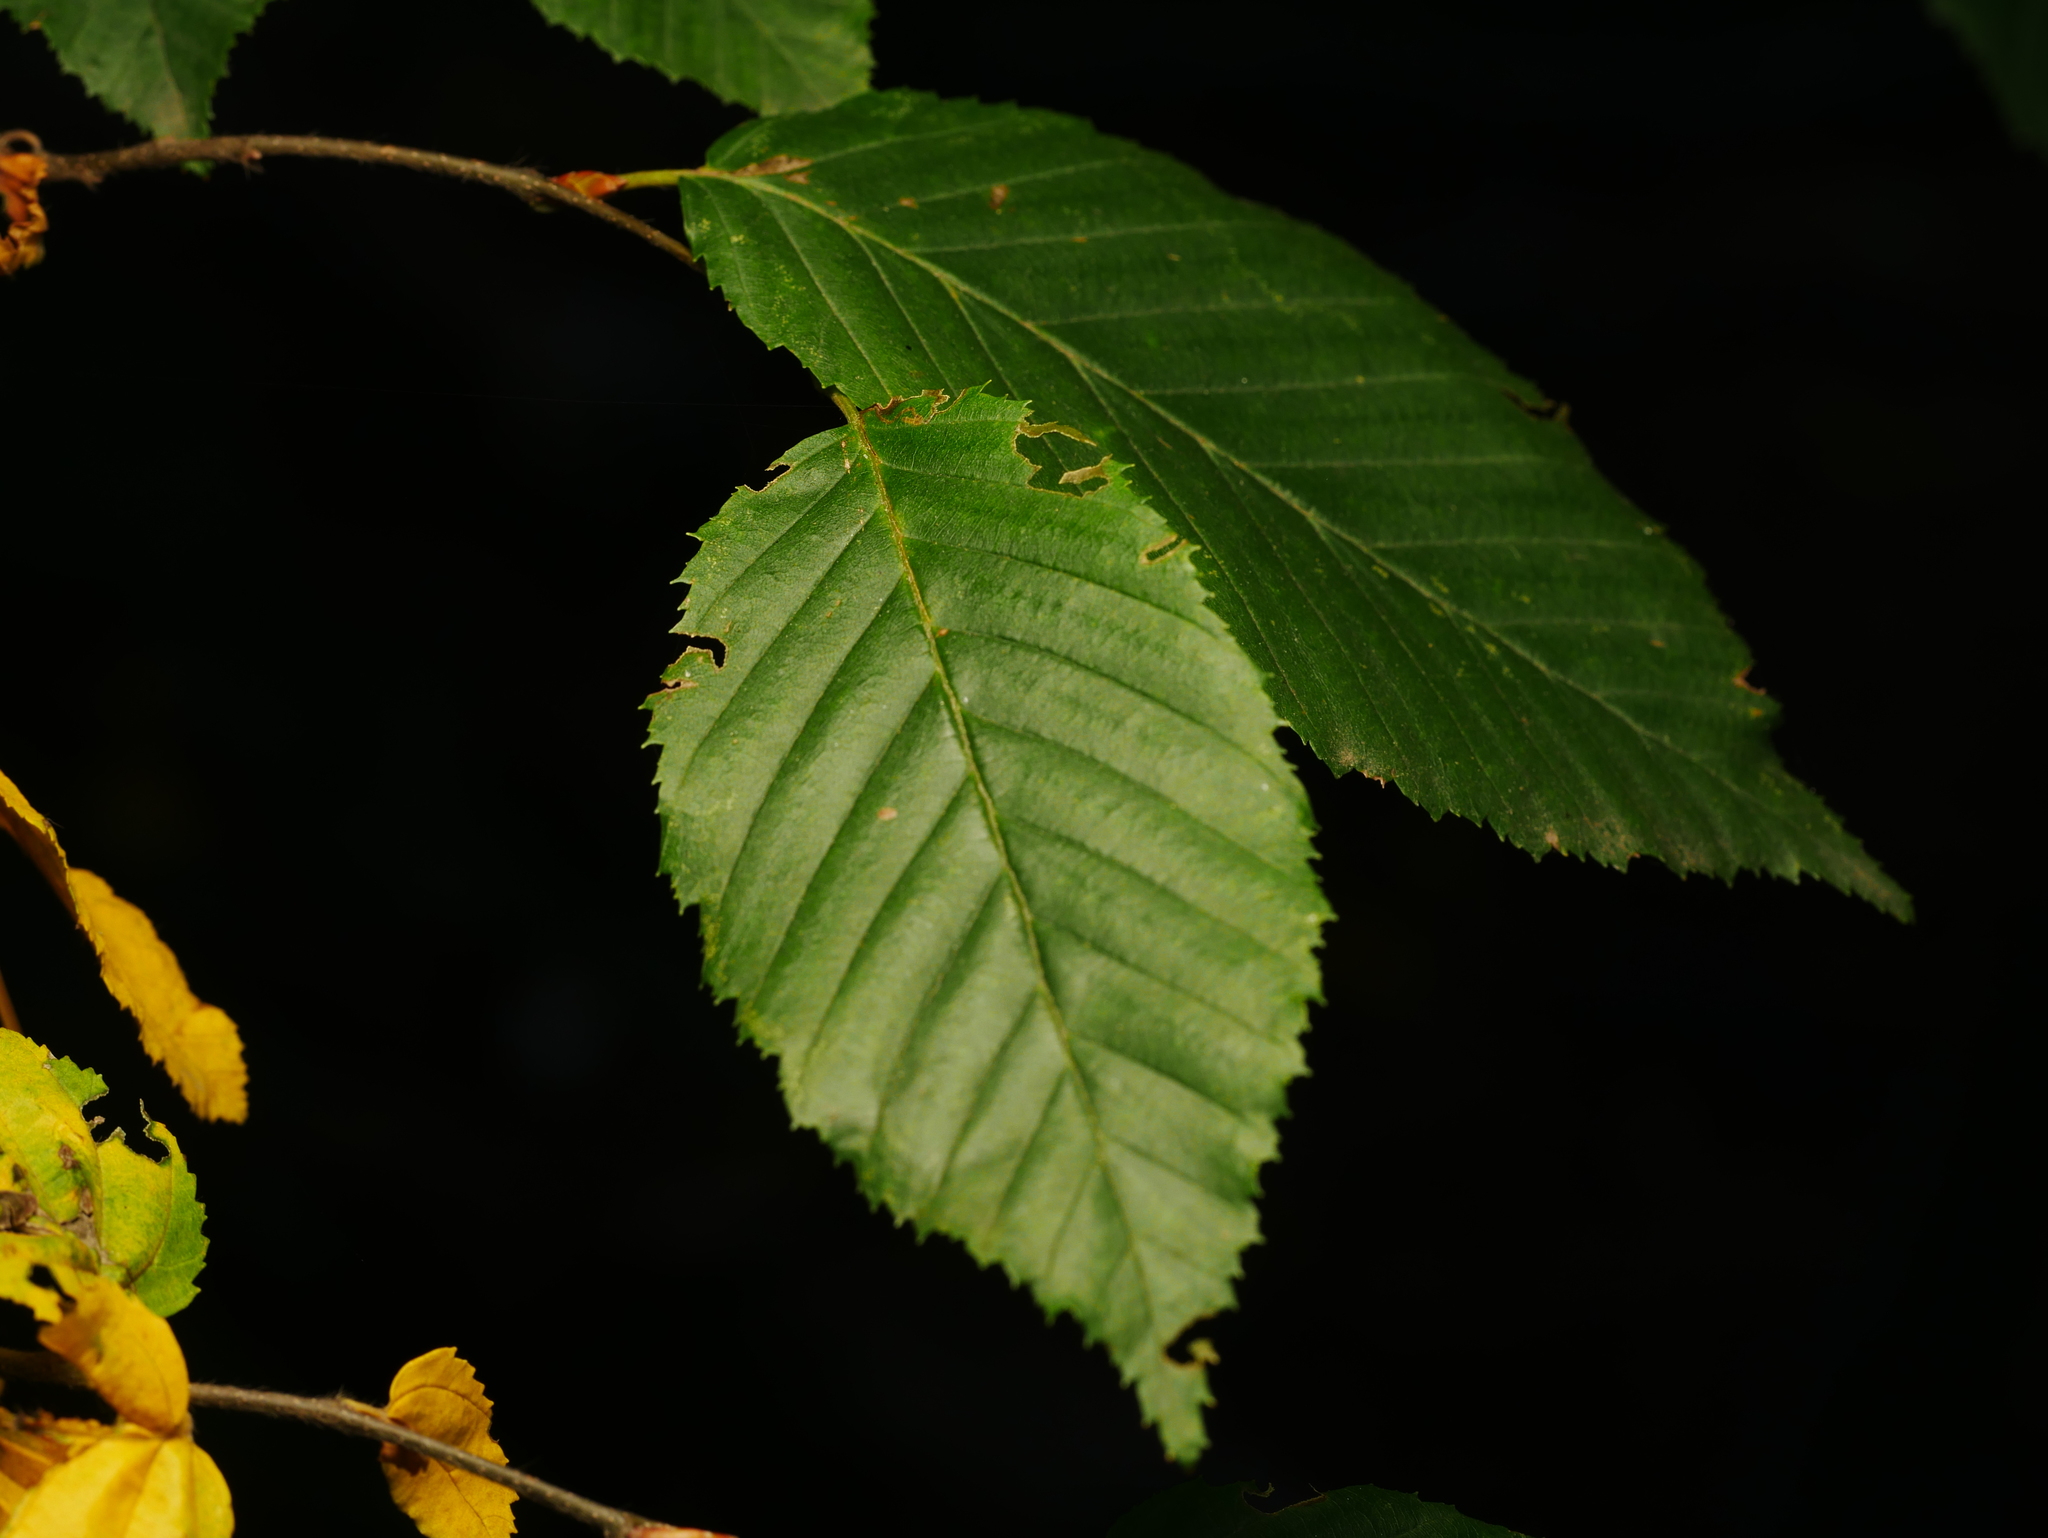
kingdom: Plantae
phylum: Tracheophyta
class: Magnoliopsida
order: Fagales
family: Betulaceae
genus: Carpinus
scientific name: Carpinus betulus
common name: Hornbeam
